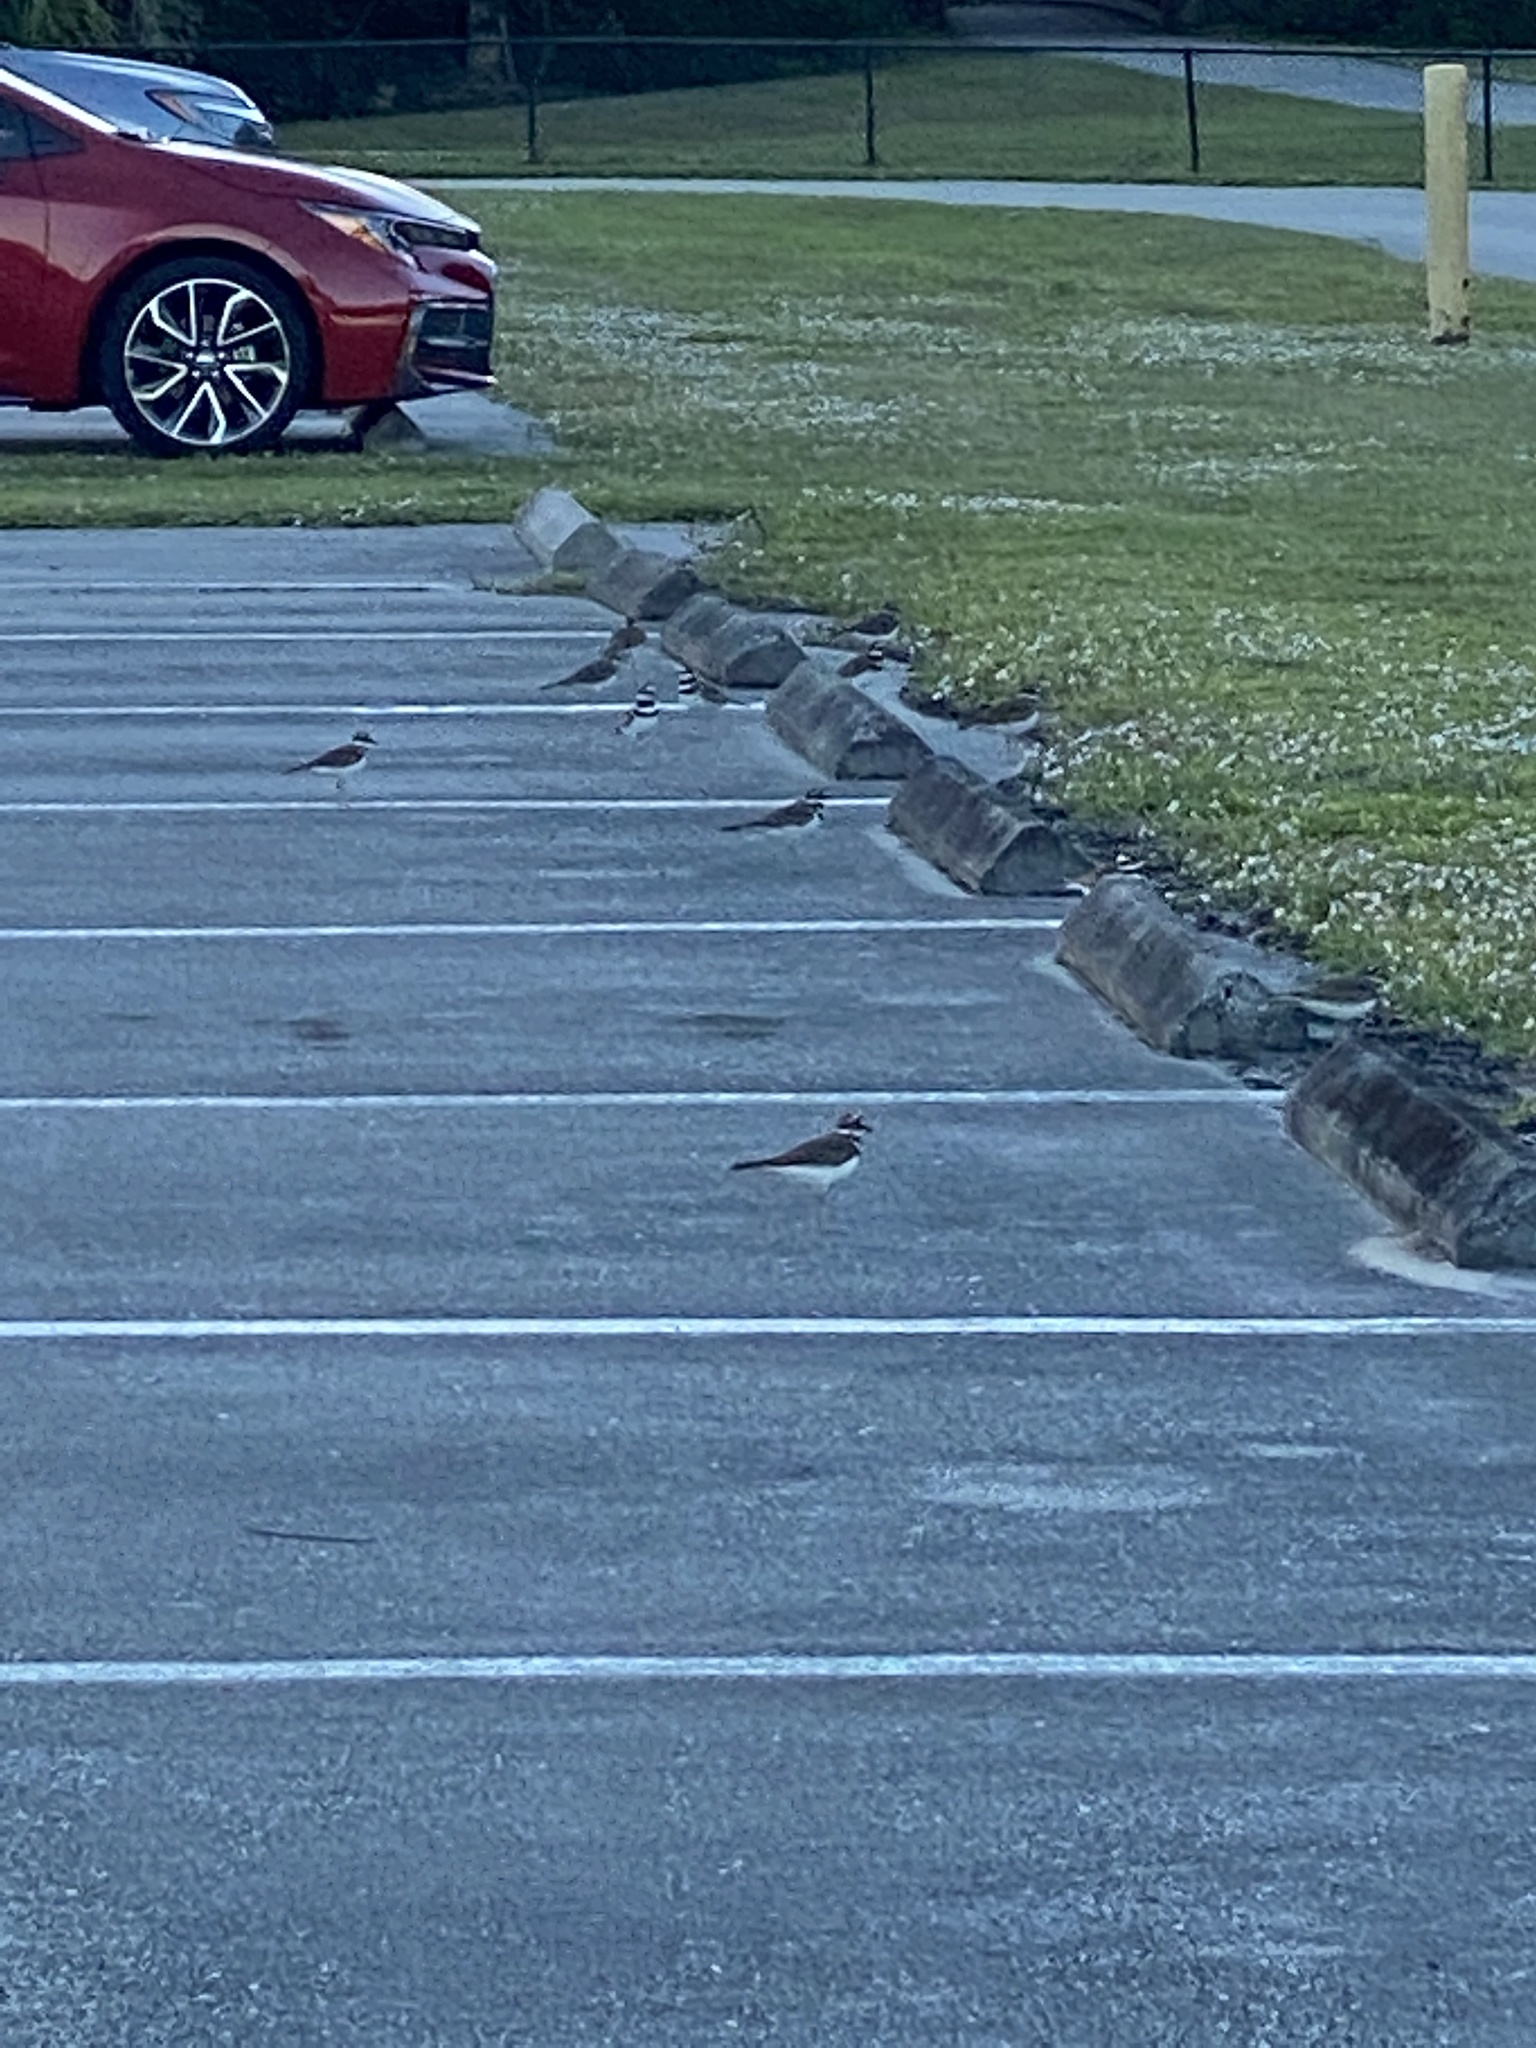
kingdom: Animalia
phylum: Chordata
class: Aves
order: Charadriiformes
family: Charadriidae
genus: Charadrius
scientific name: Charadrius vociferus
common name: Killdeer
